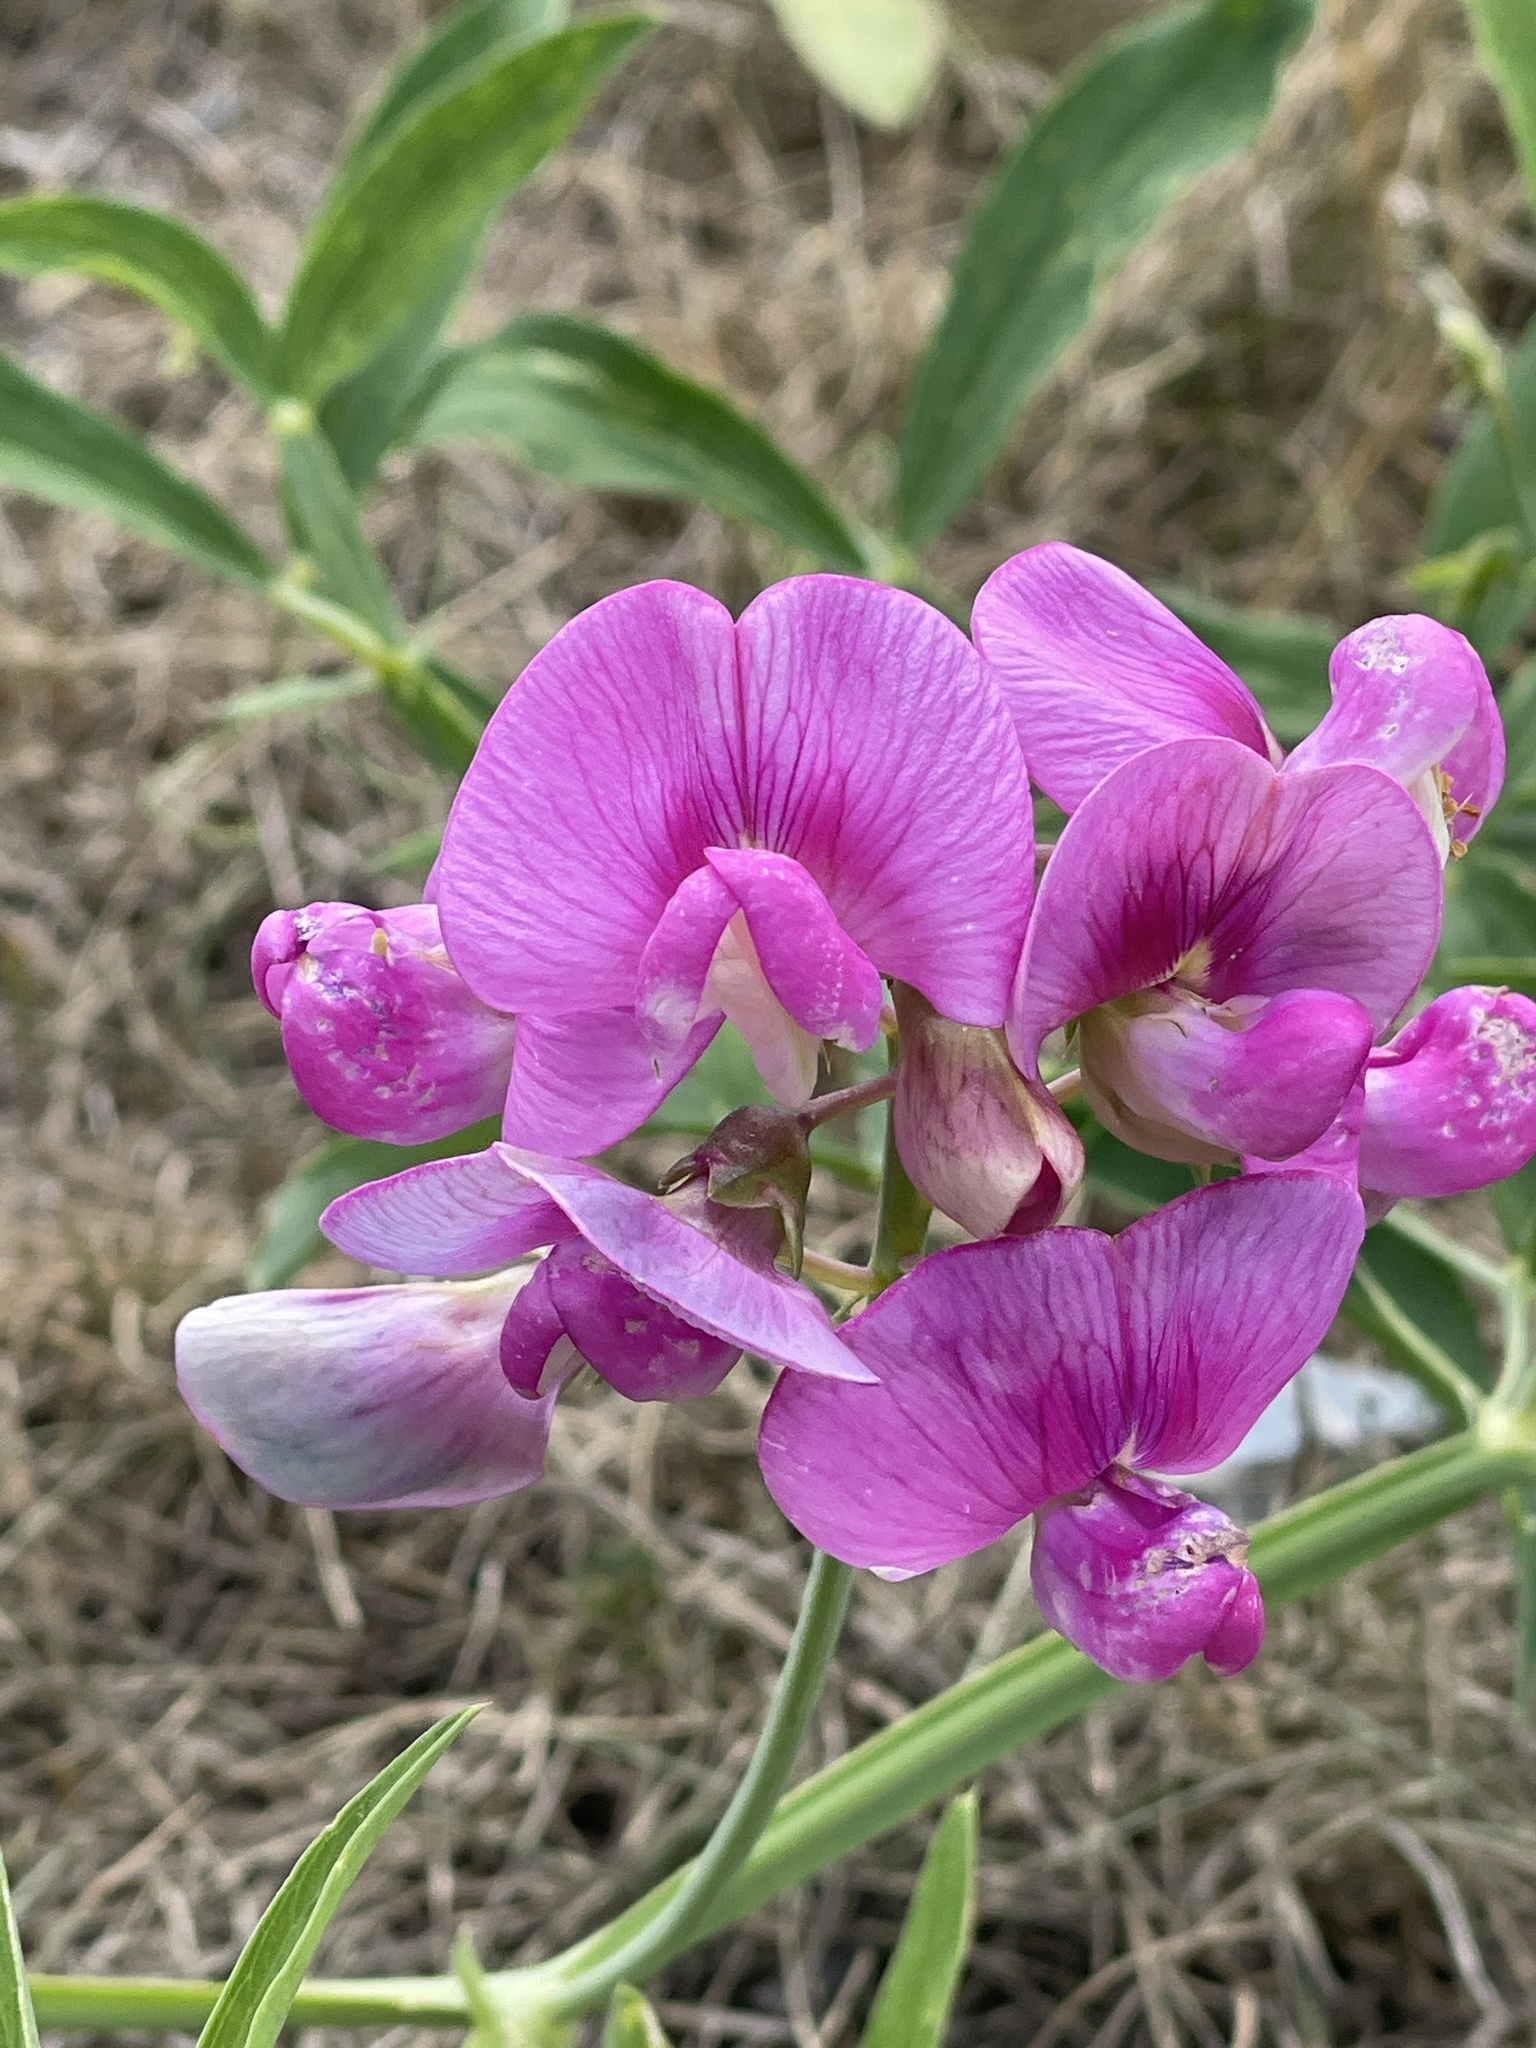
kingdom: Plantae
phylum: Tracheophyta
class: Magnoliopsida
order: Fabales
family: Fabaceae
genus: Lathyrus
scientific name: Lathyrus latifolius
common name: Perennial pea
